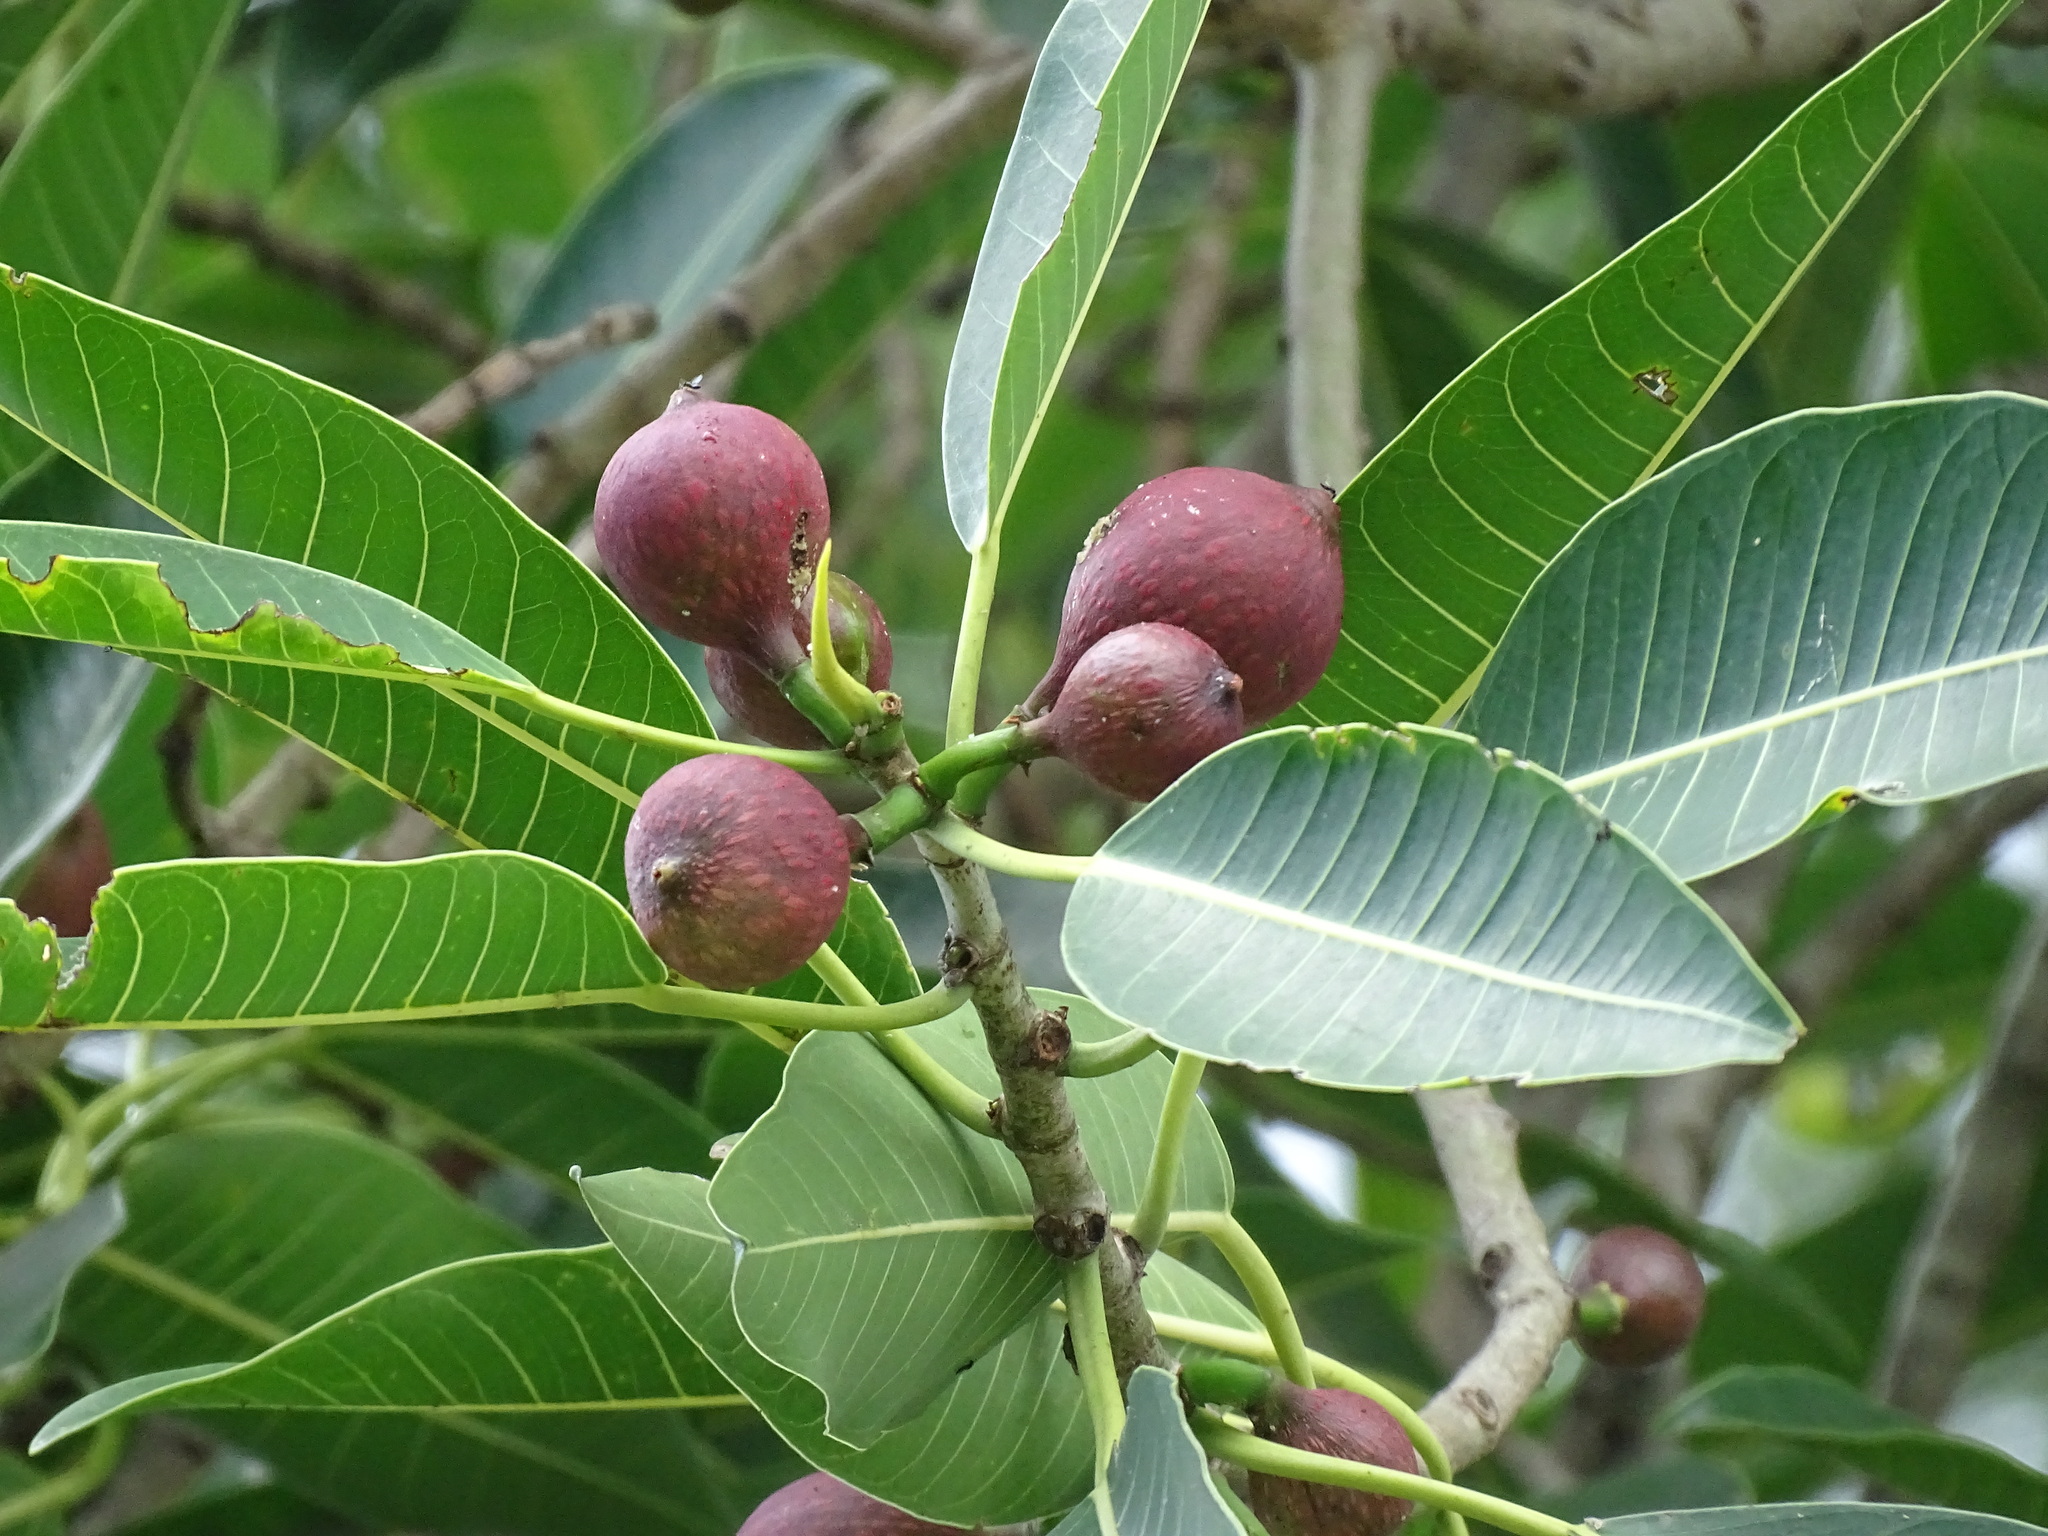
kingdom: Plantae
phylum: Tracheophyta
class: Magnoliopsida
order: Rosales
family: Moraceae
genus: Ficus
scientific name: Ficus insipida
